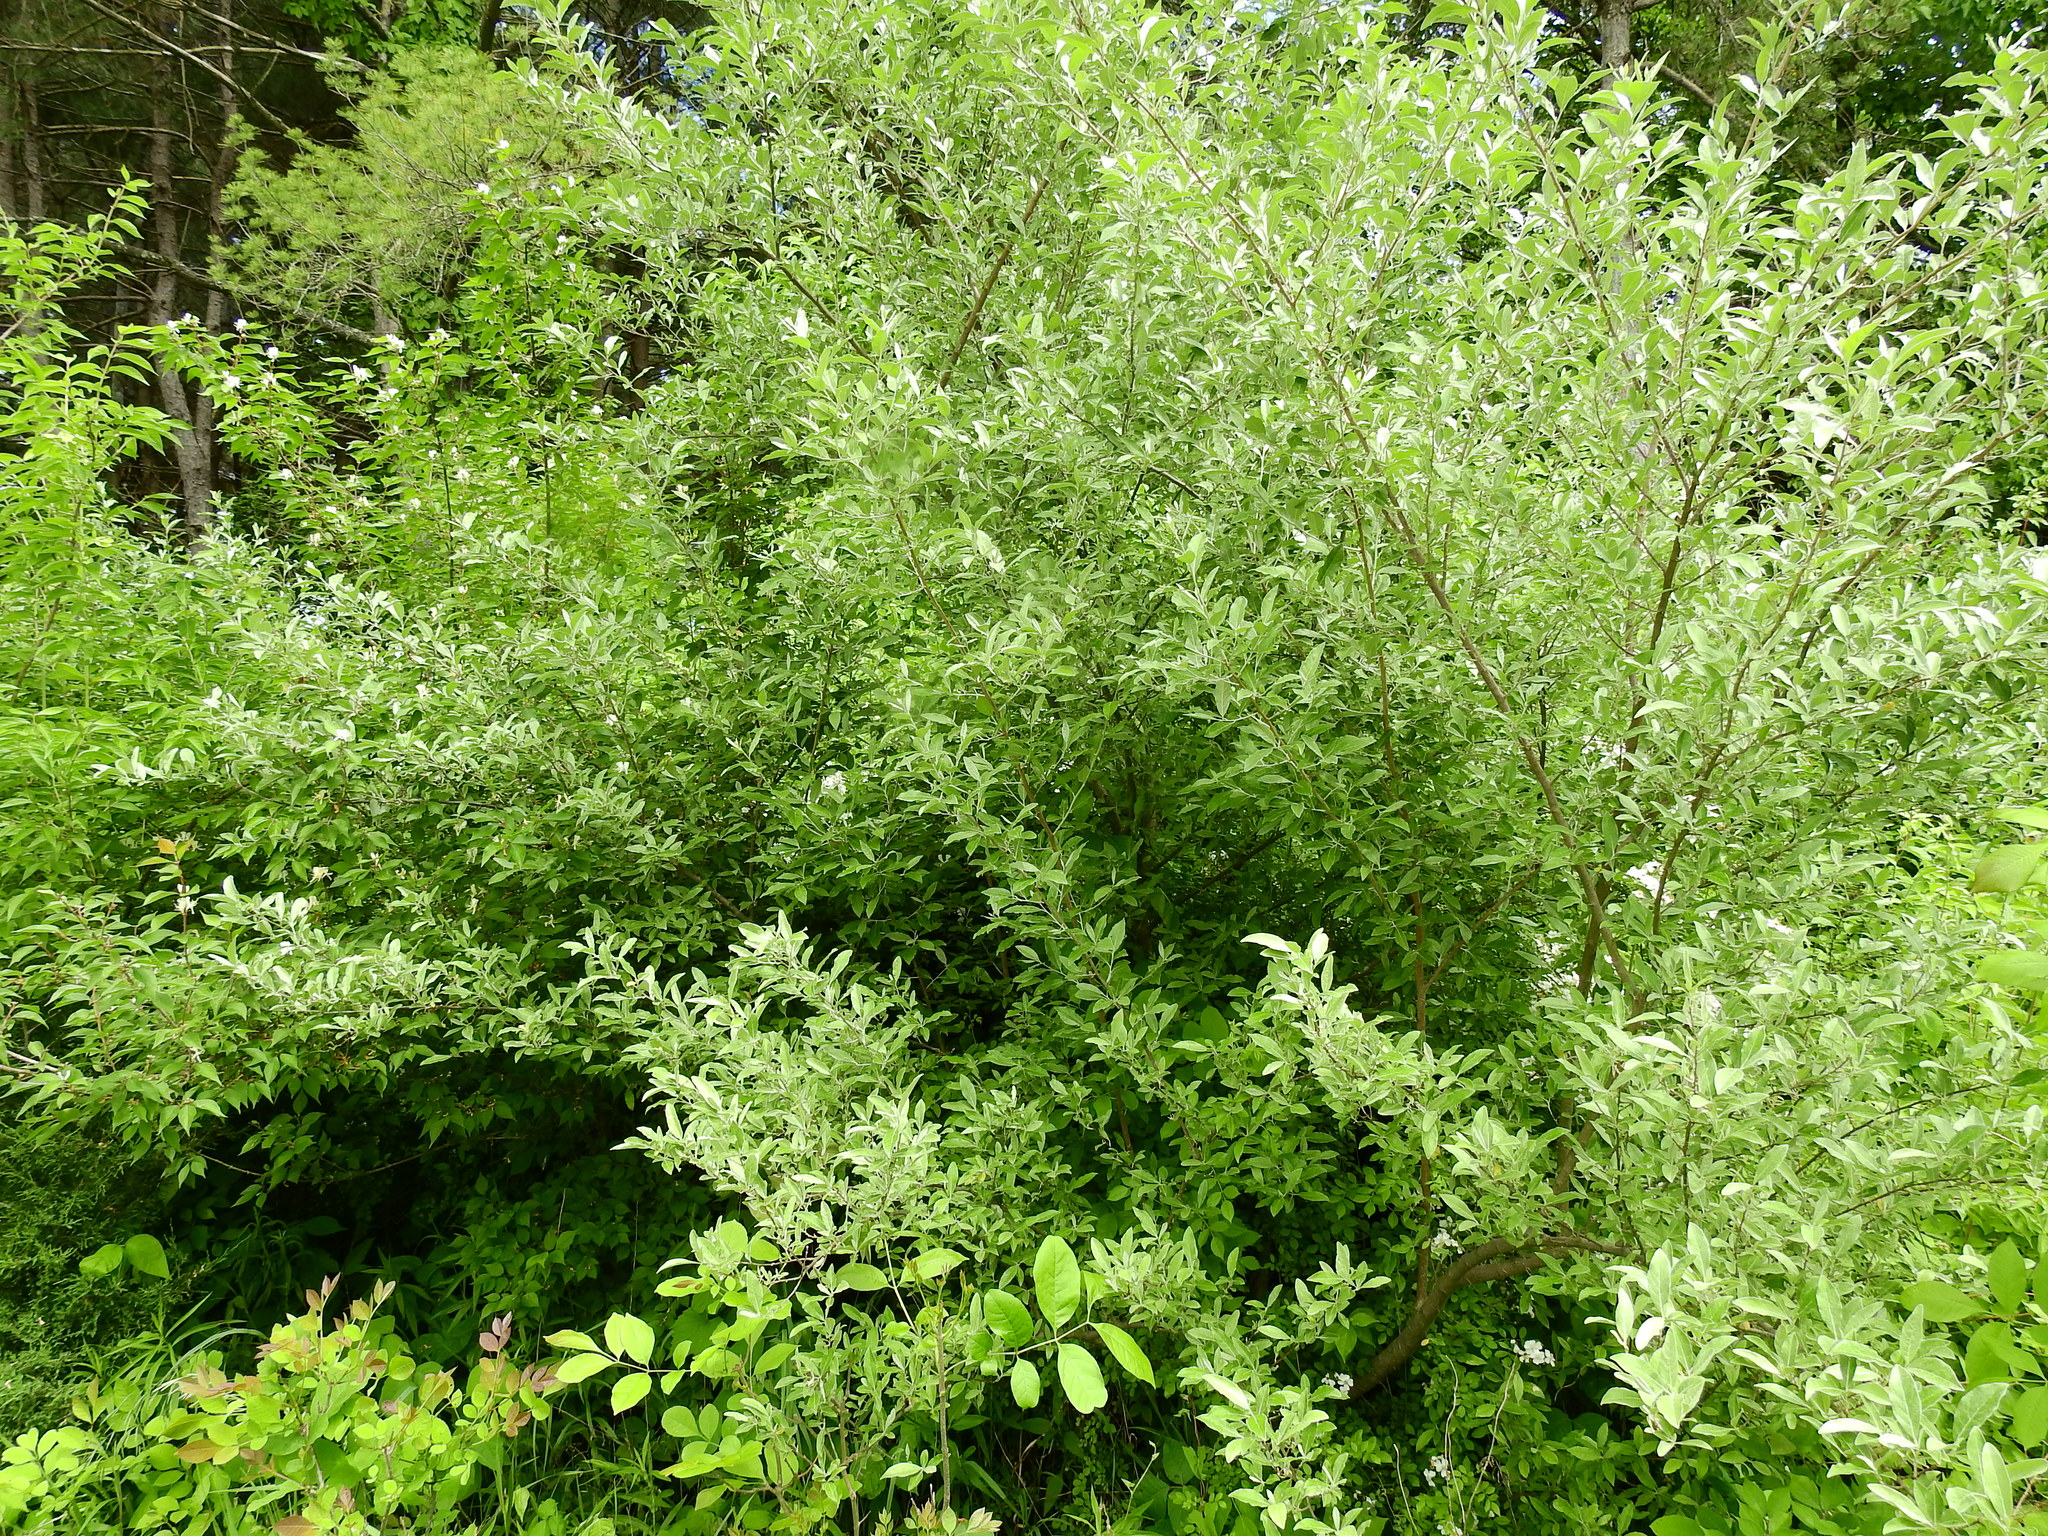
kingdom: Plantae
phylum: Tracheophyta
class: Magnoliopsida
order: Rosales
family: Elaeagnaceae
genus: Elaeagnus
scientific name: Elaeagnus umbellata
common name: Autumn olive
